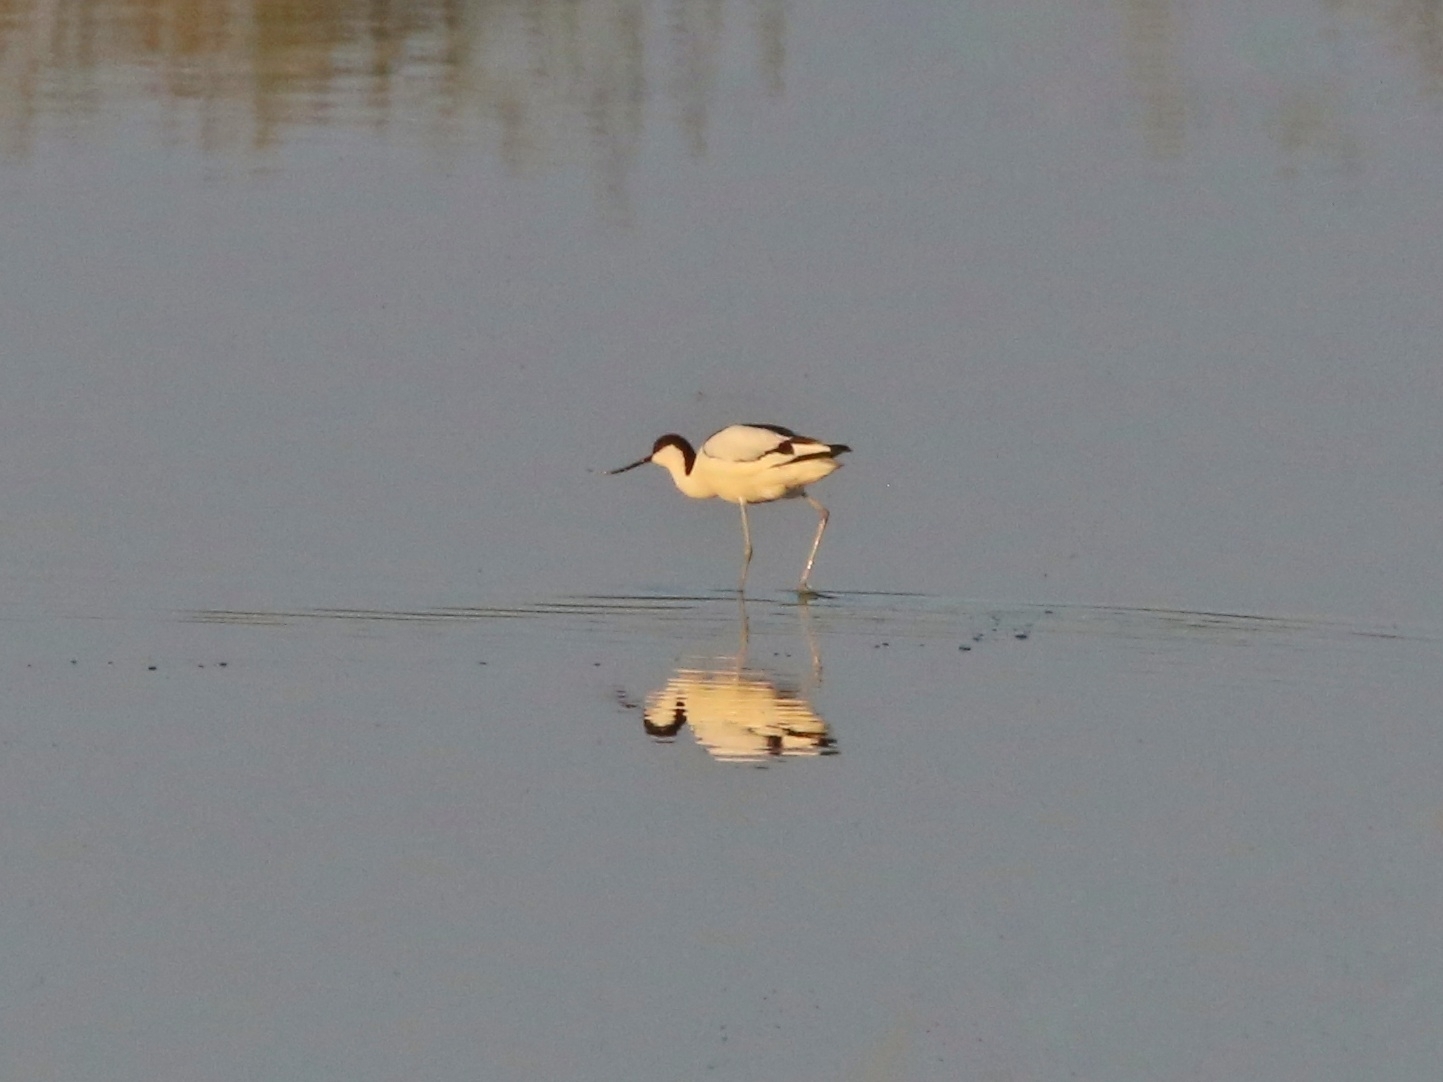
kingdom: Animalia
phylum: Chordata
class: Aves
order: Charadriiformes
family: Recurvirostridae
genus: Recurvirostra
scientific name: Recurvirostra avosetta
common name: Pied avocet
